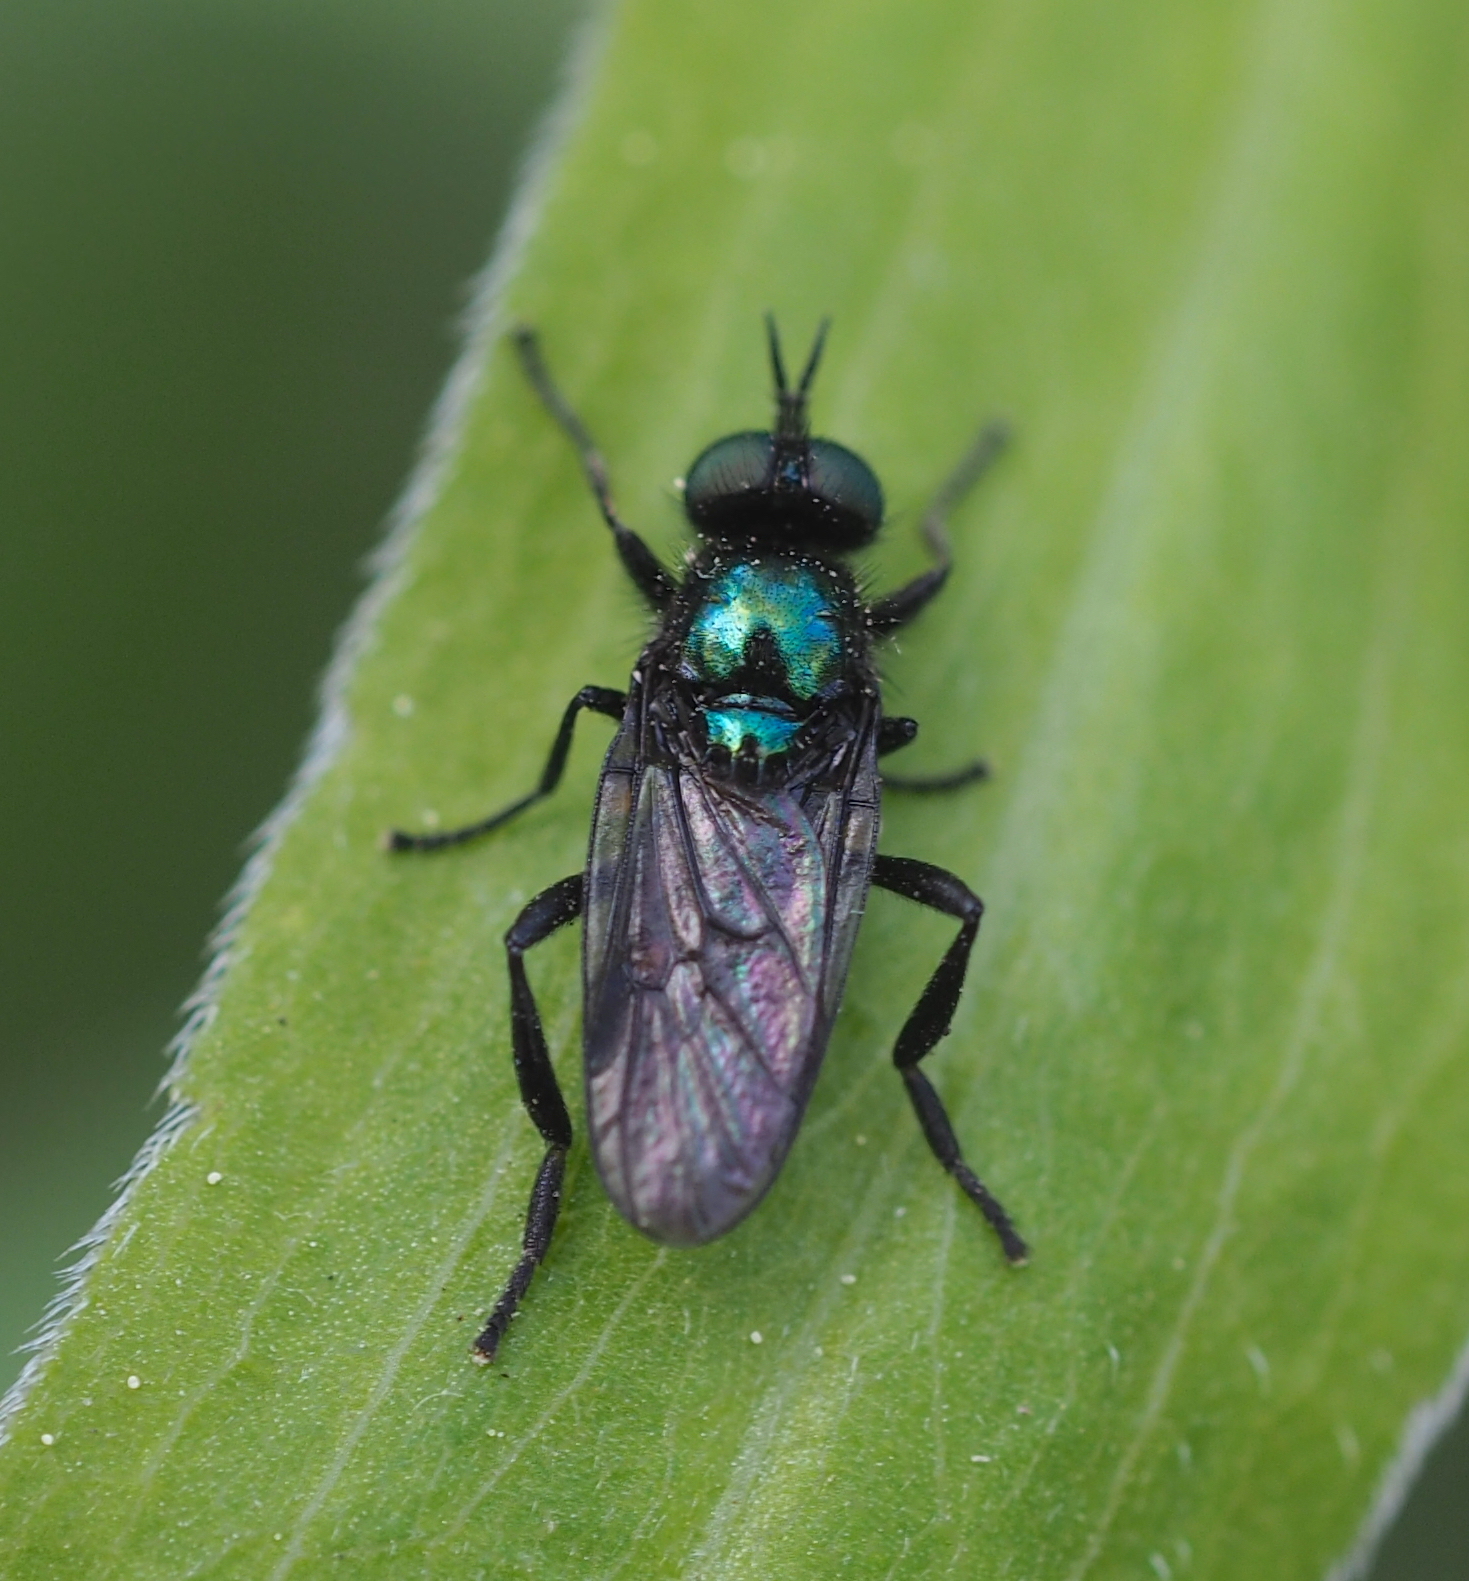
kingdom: Animalia
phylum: Arthropoda
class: Insecta
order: Diptera
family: Stratiomyidae
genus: Actina
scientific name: Actina chalybea
